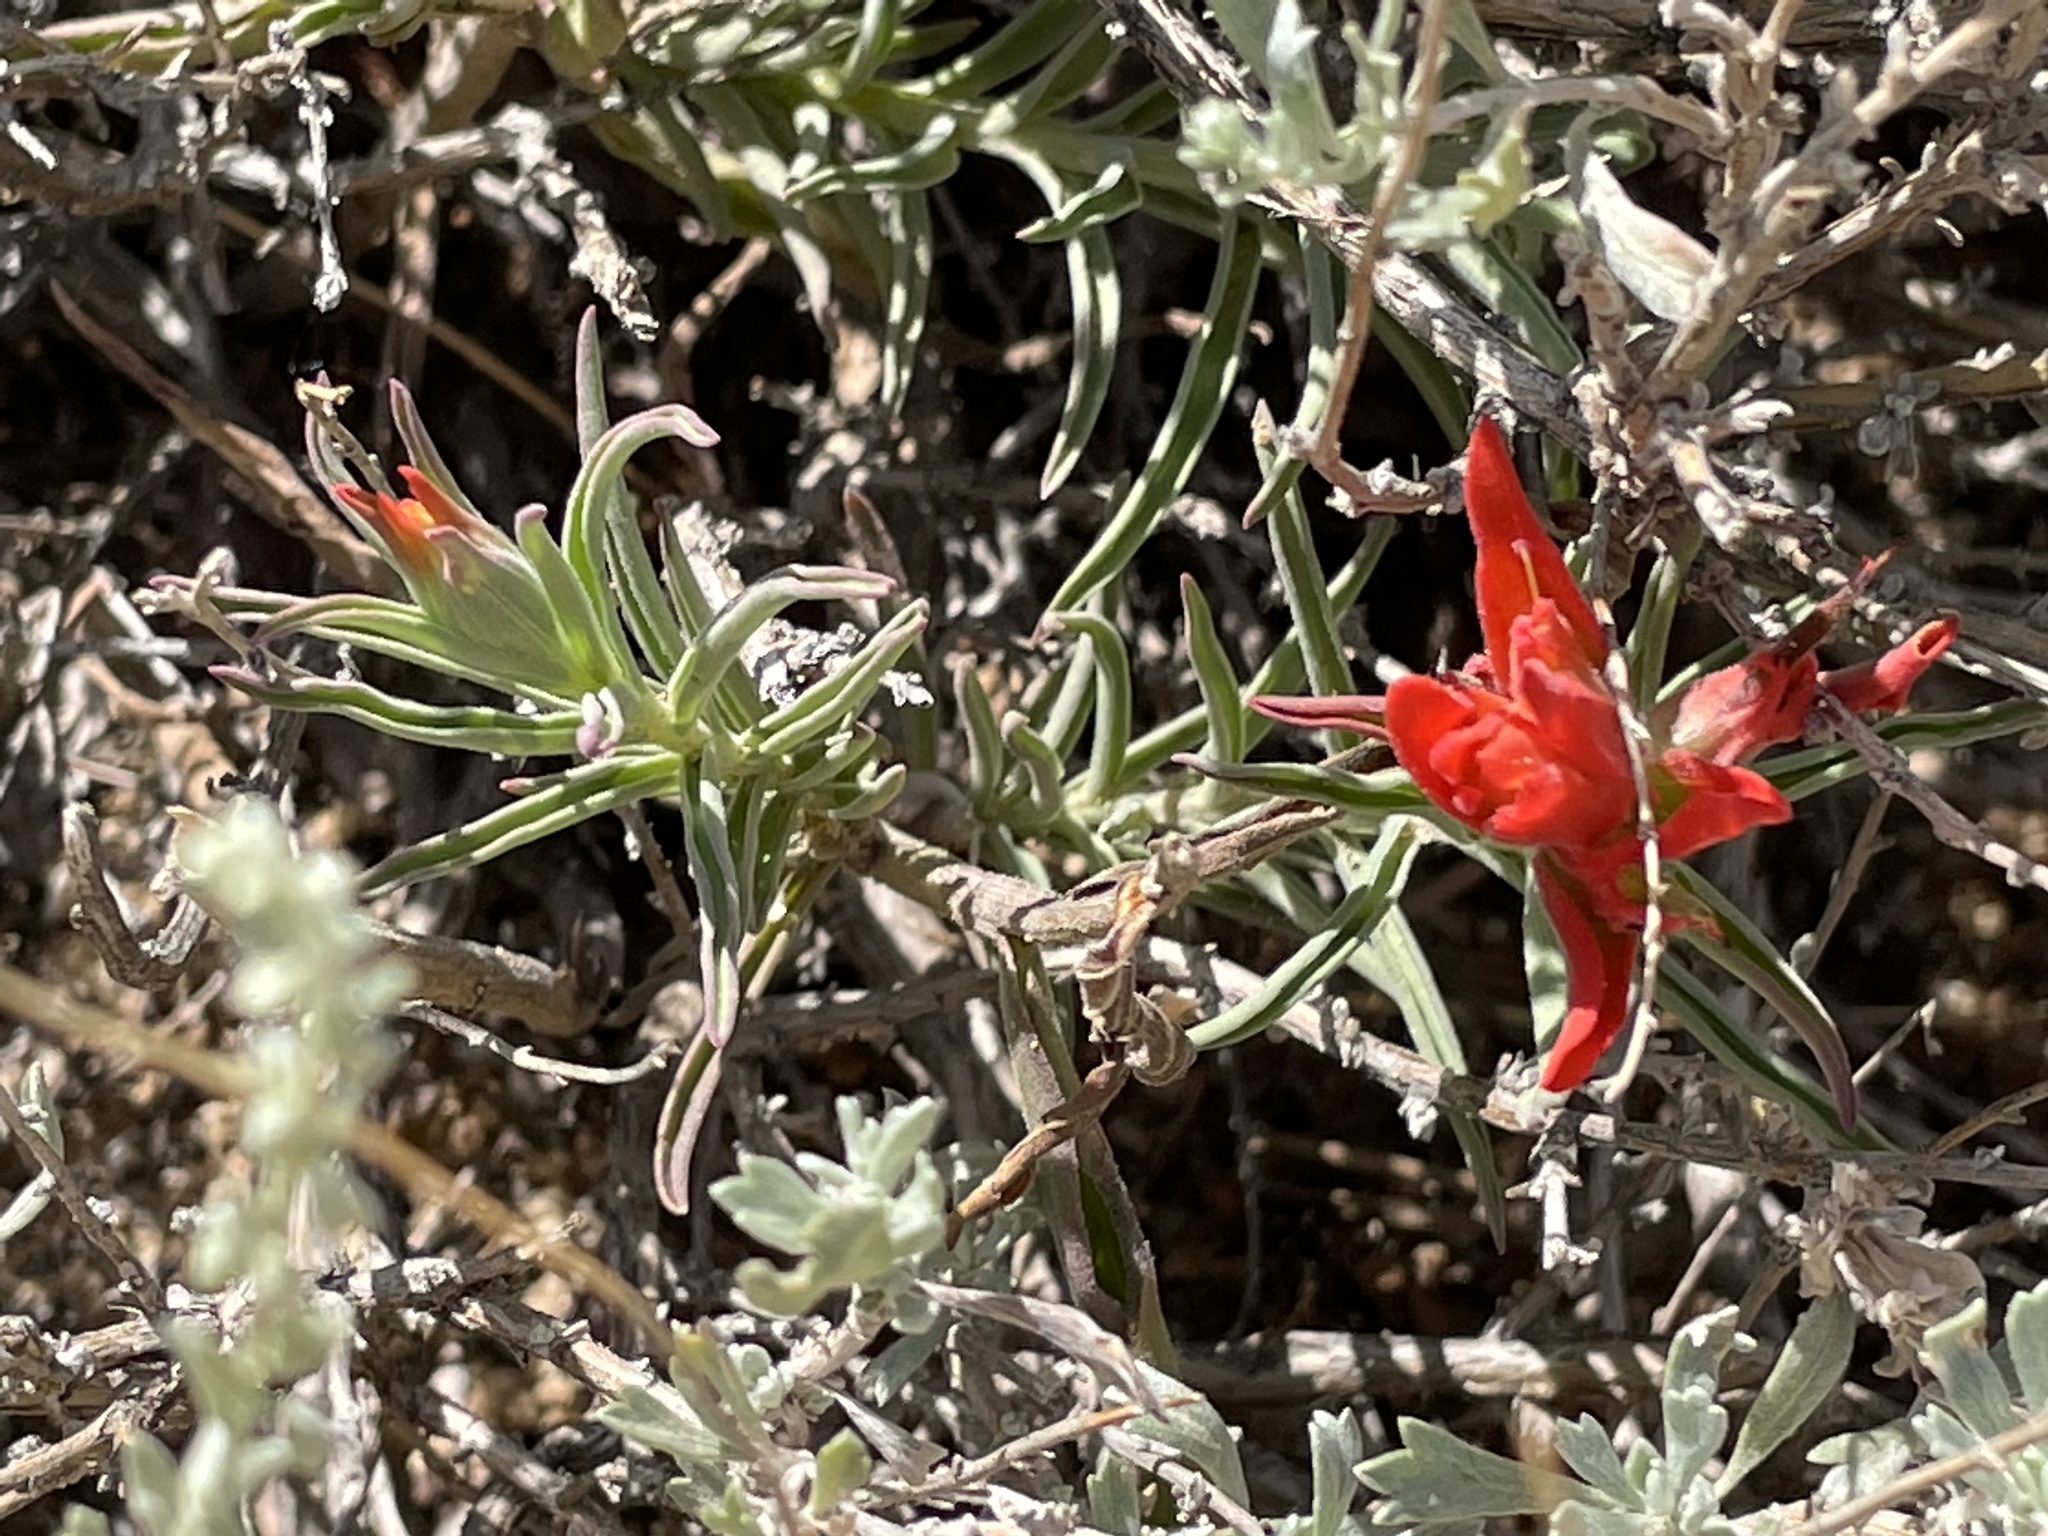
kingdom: Plantae
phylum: Tracheophyta
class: Magnoliopsida
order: Lamiales
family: Orobanchaceae
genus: Castilleja
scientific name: Castilleja integra
